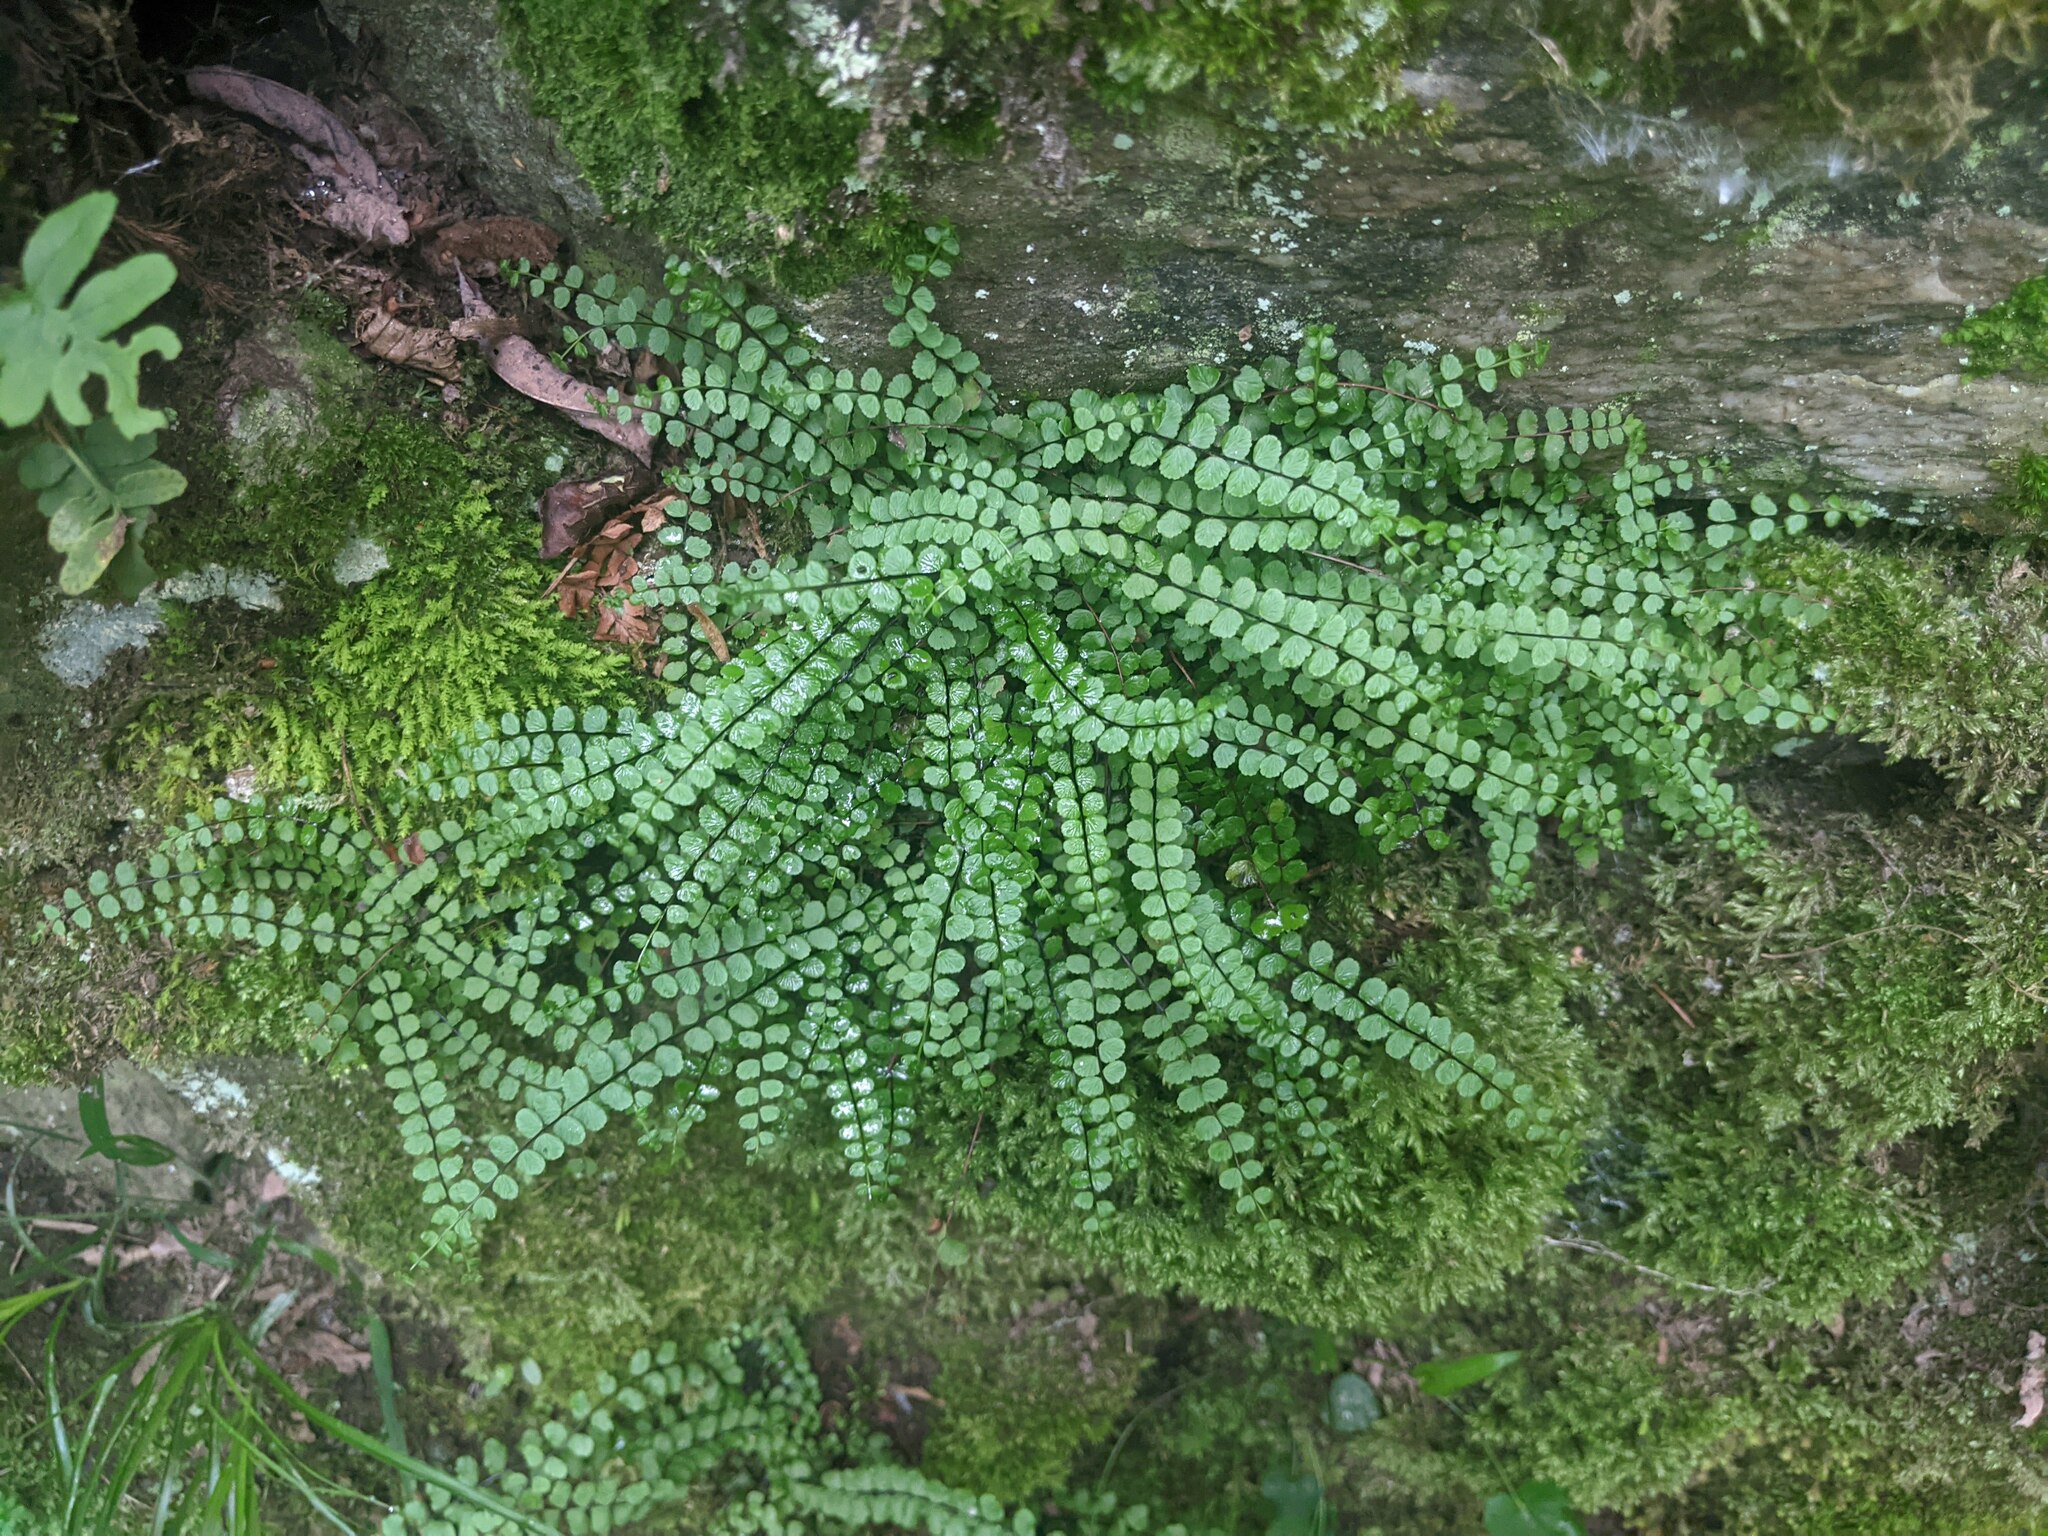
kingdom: Plantae
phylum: Tracheophyta
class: Polypodiopsida
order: Polypodiales
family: Aspleniaceae
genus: Asplenium
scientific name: Asplenium trichomanes
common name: Maidenhair spleenwort
